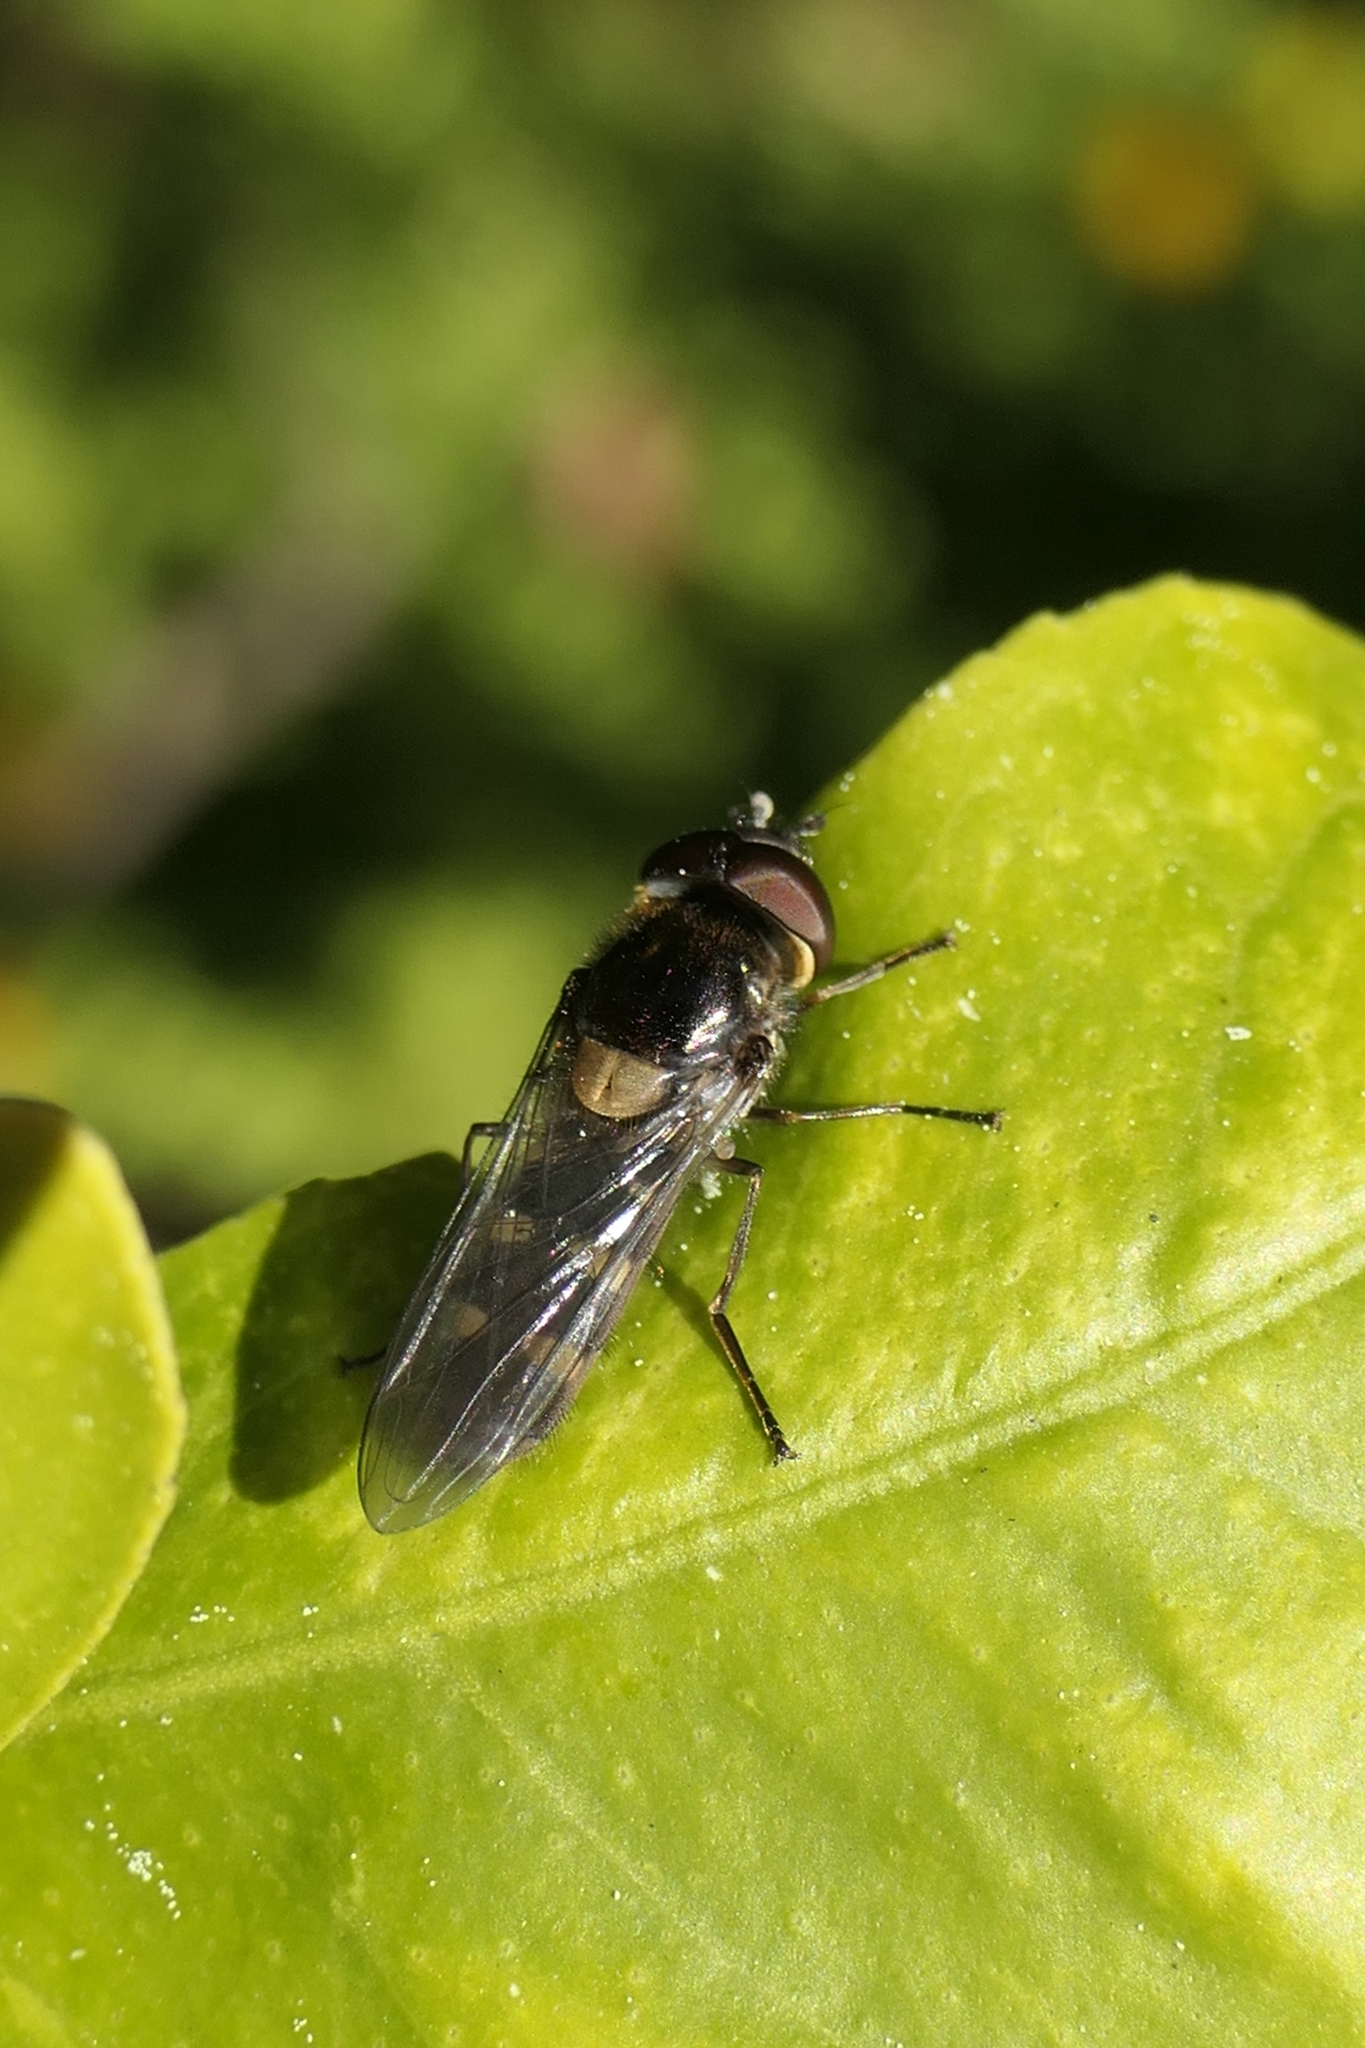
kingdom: Animalia
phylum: Arthropoda
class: Insecta
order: Diptera
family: Syrphidae
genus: Melangyna
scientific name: Melangyna novaezelandiae
